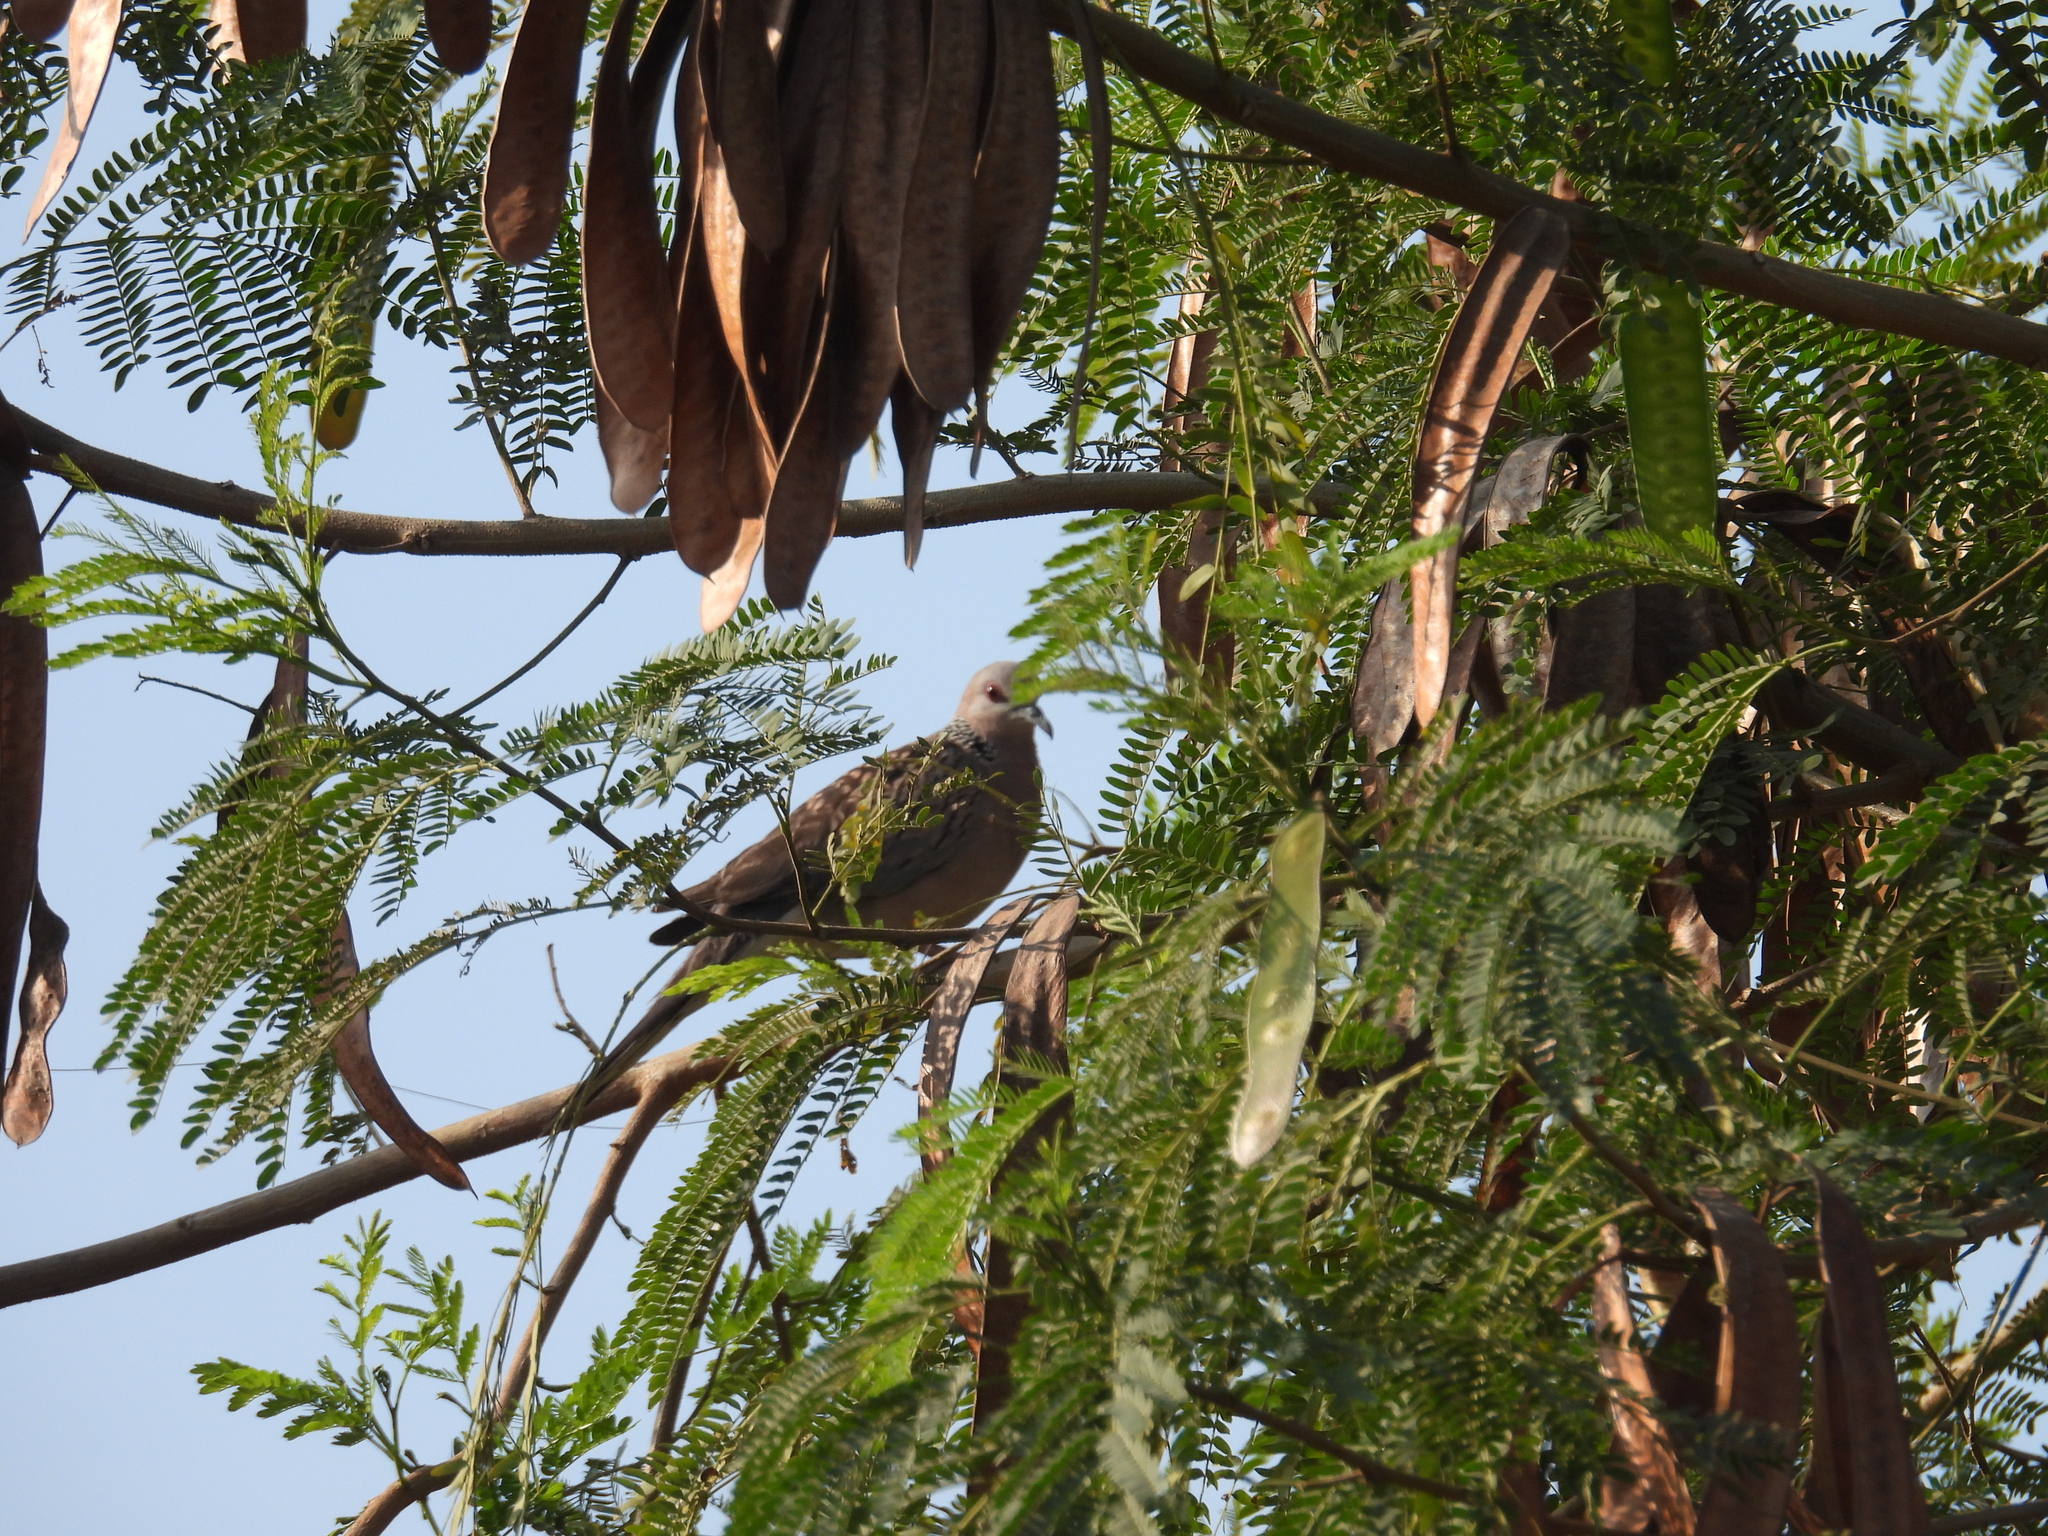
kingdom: Animalia
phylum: Chordata
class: Aves
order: Columbiformes
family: Columbidae
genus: Spilopelia
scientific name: Spilopelia chinensis
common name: Spotted dove
